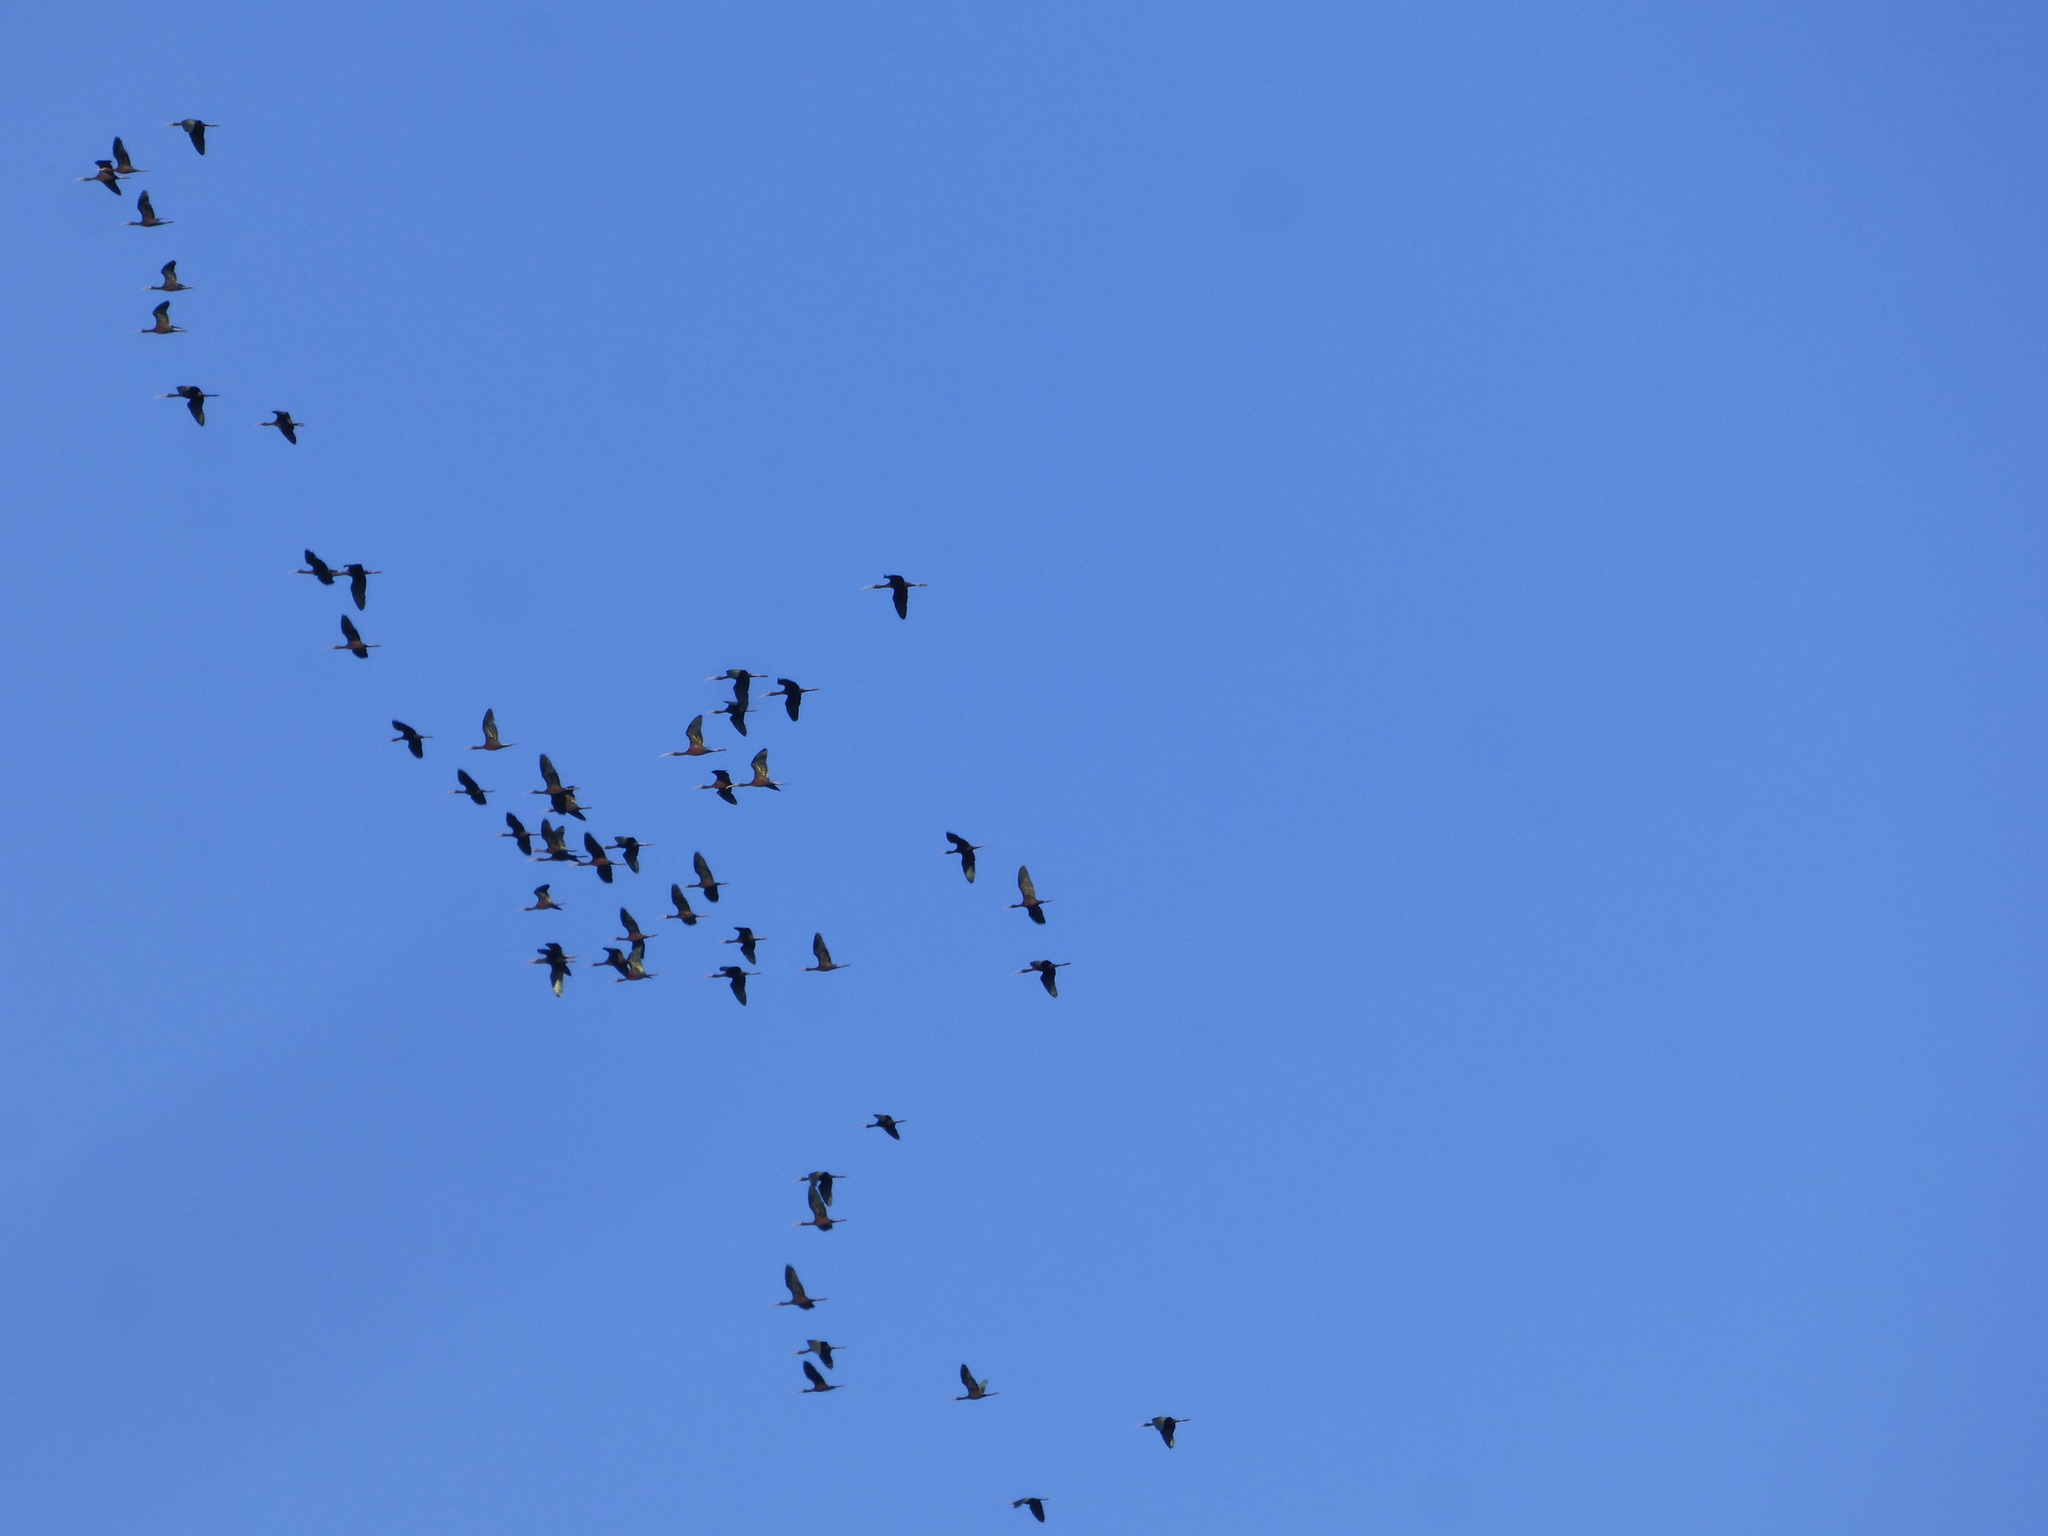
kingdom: Animalia
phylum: Chordata
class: Aves
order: Pelecaniformes
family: Threskiornithidae
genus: Plegadis
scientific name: Plegadis chihi
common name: White-faced ibis
